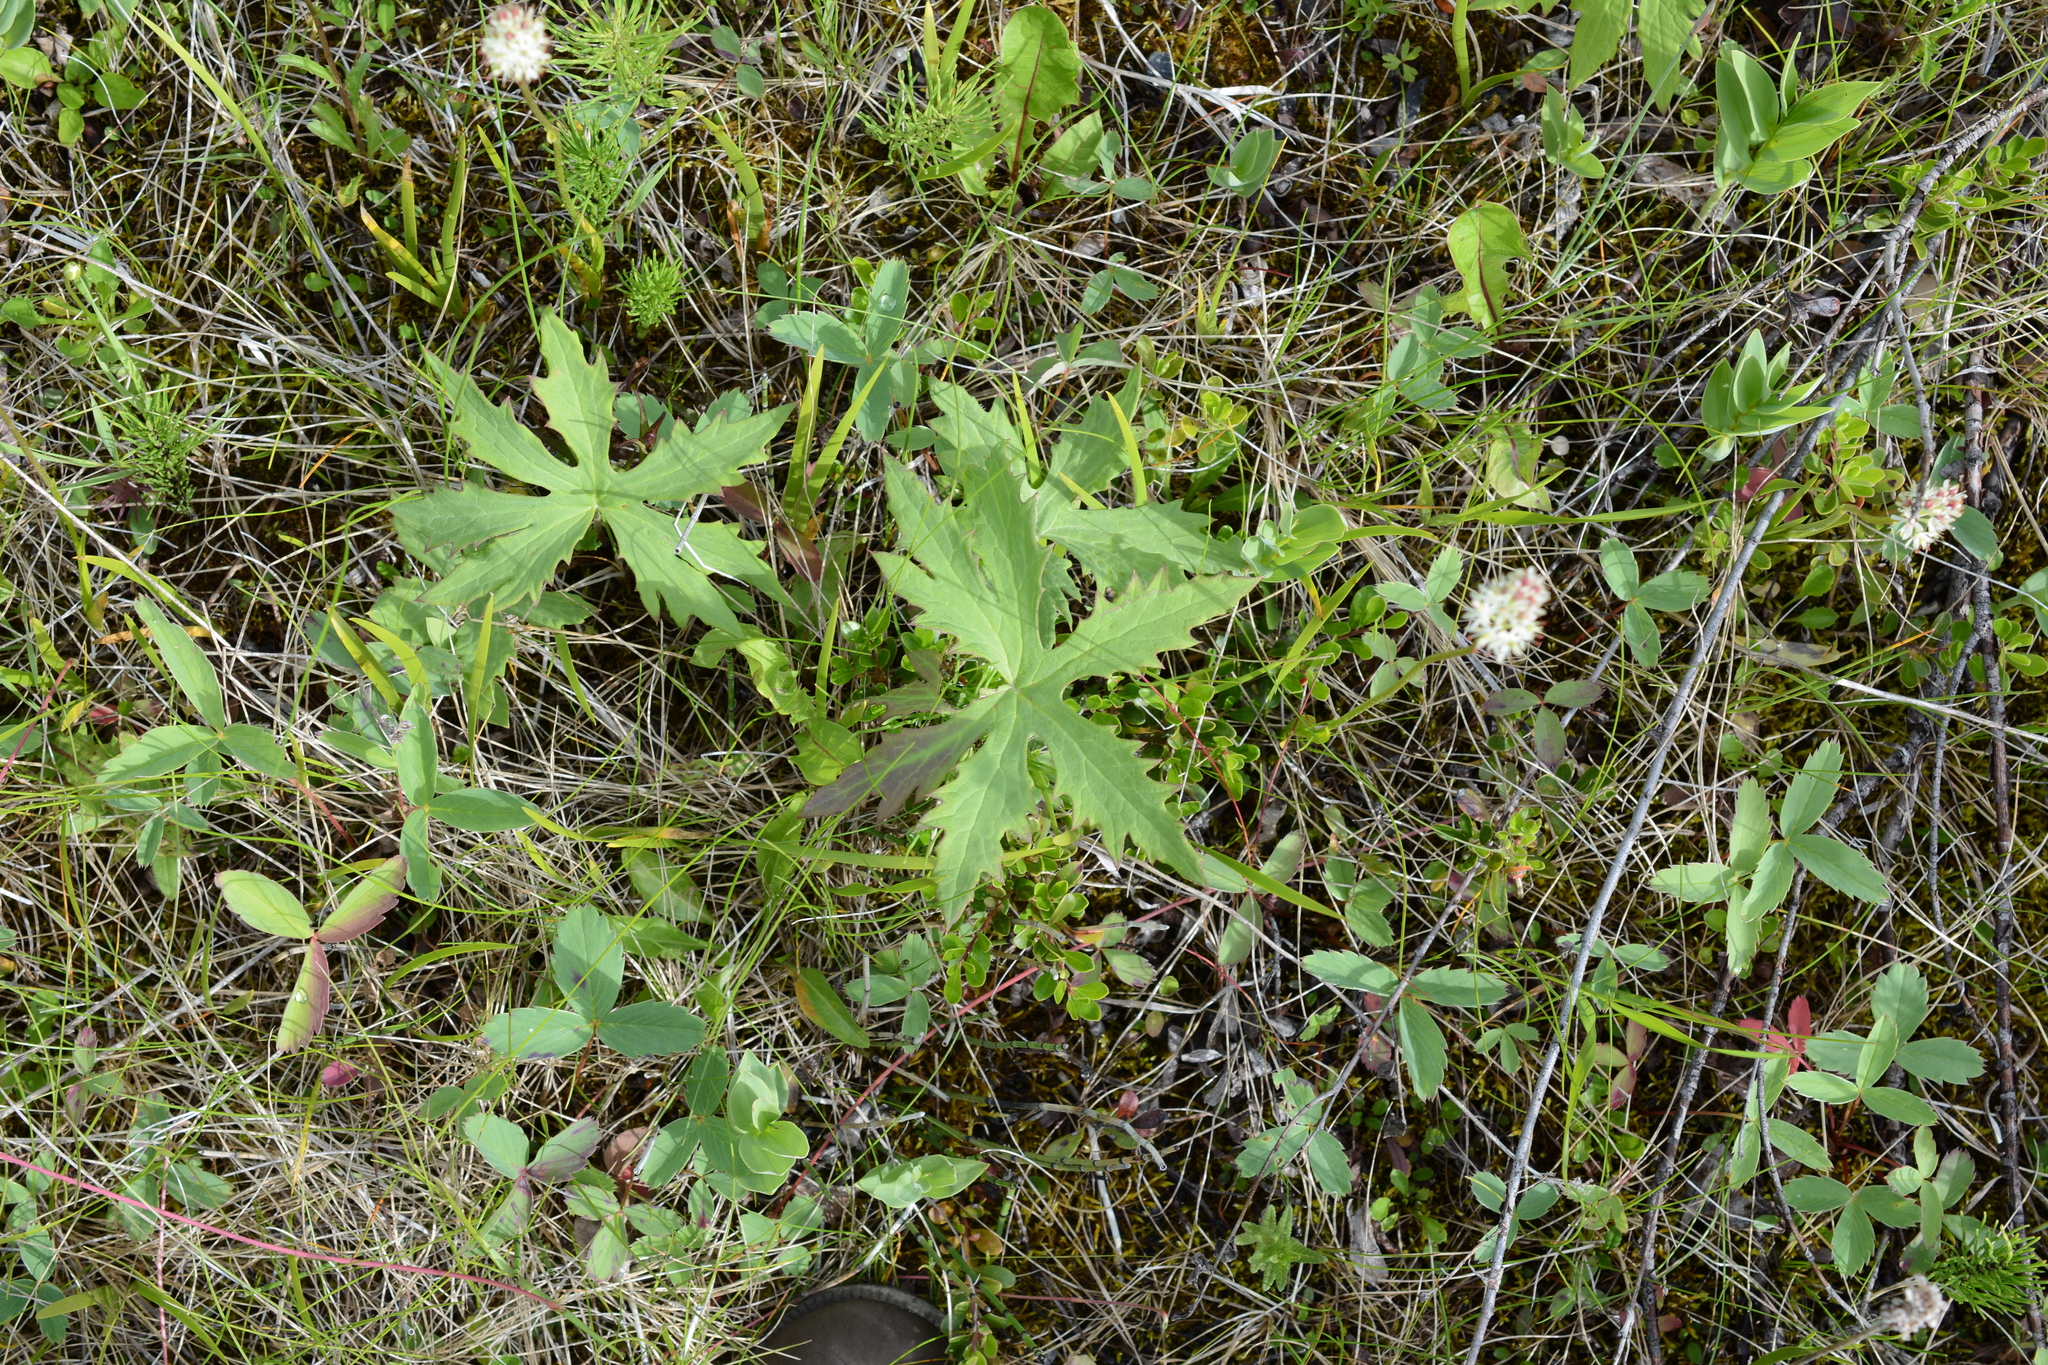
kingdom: Plantae
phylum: Tracheophyta
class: Magnoliopsida
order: Asterales
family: Asteraceae
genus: Petasites
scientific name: Petasites frigidus
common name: Arctic butterbur
